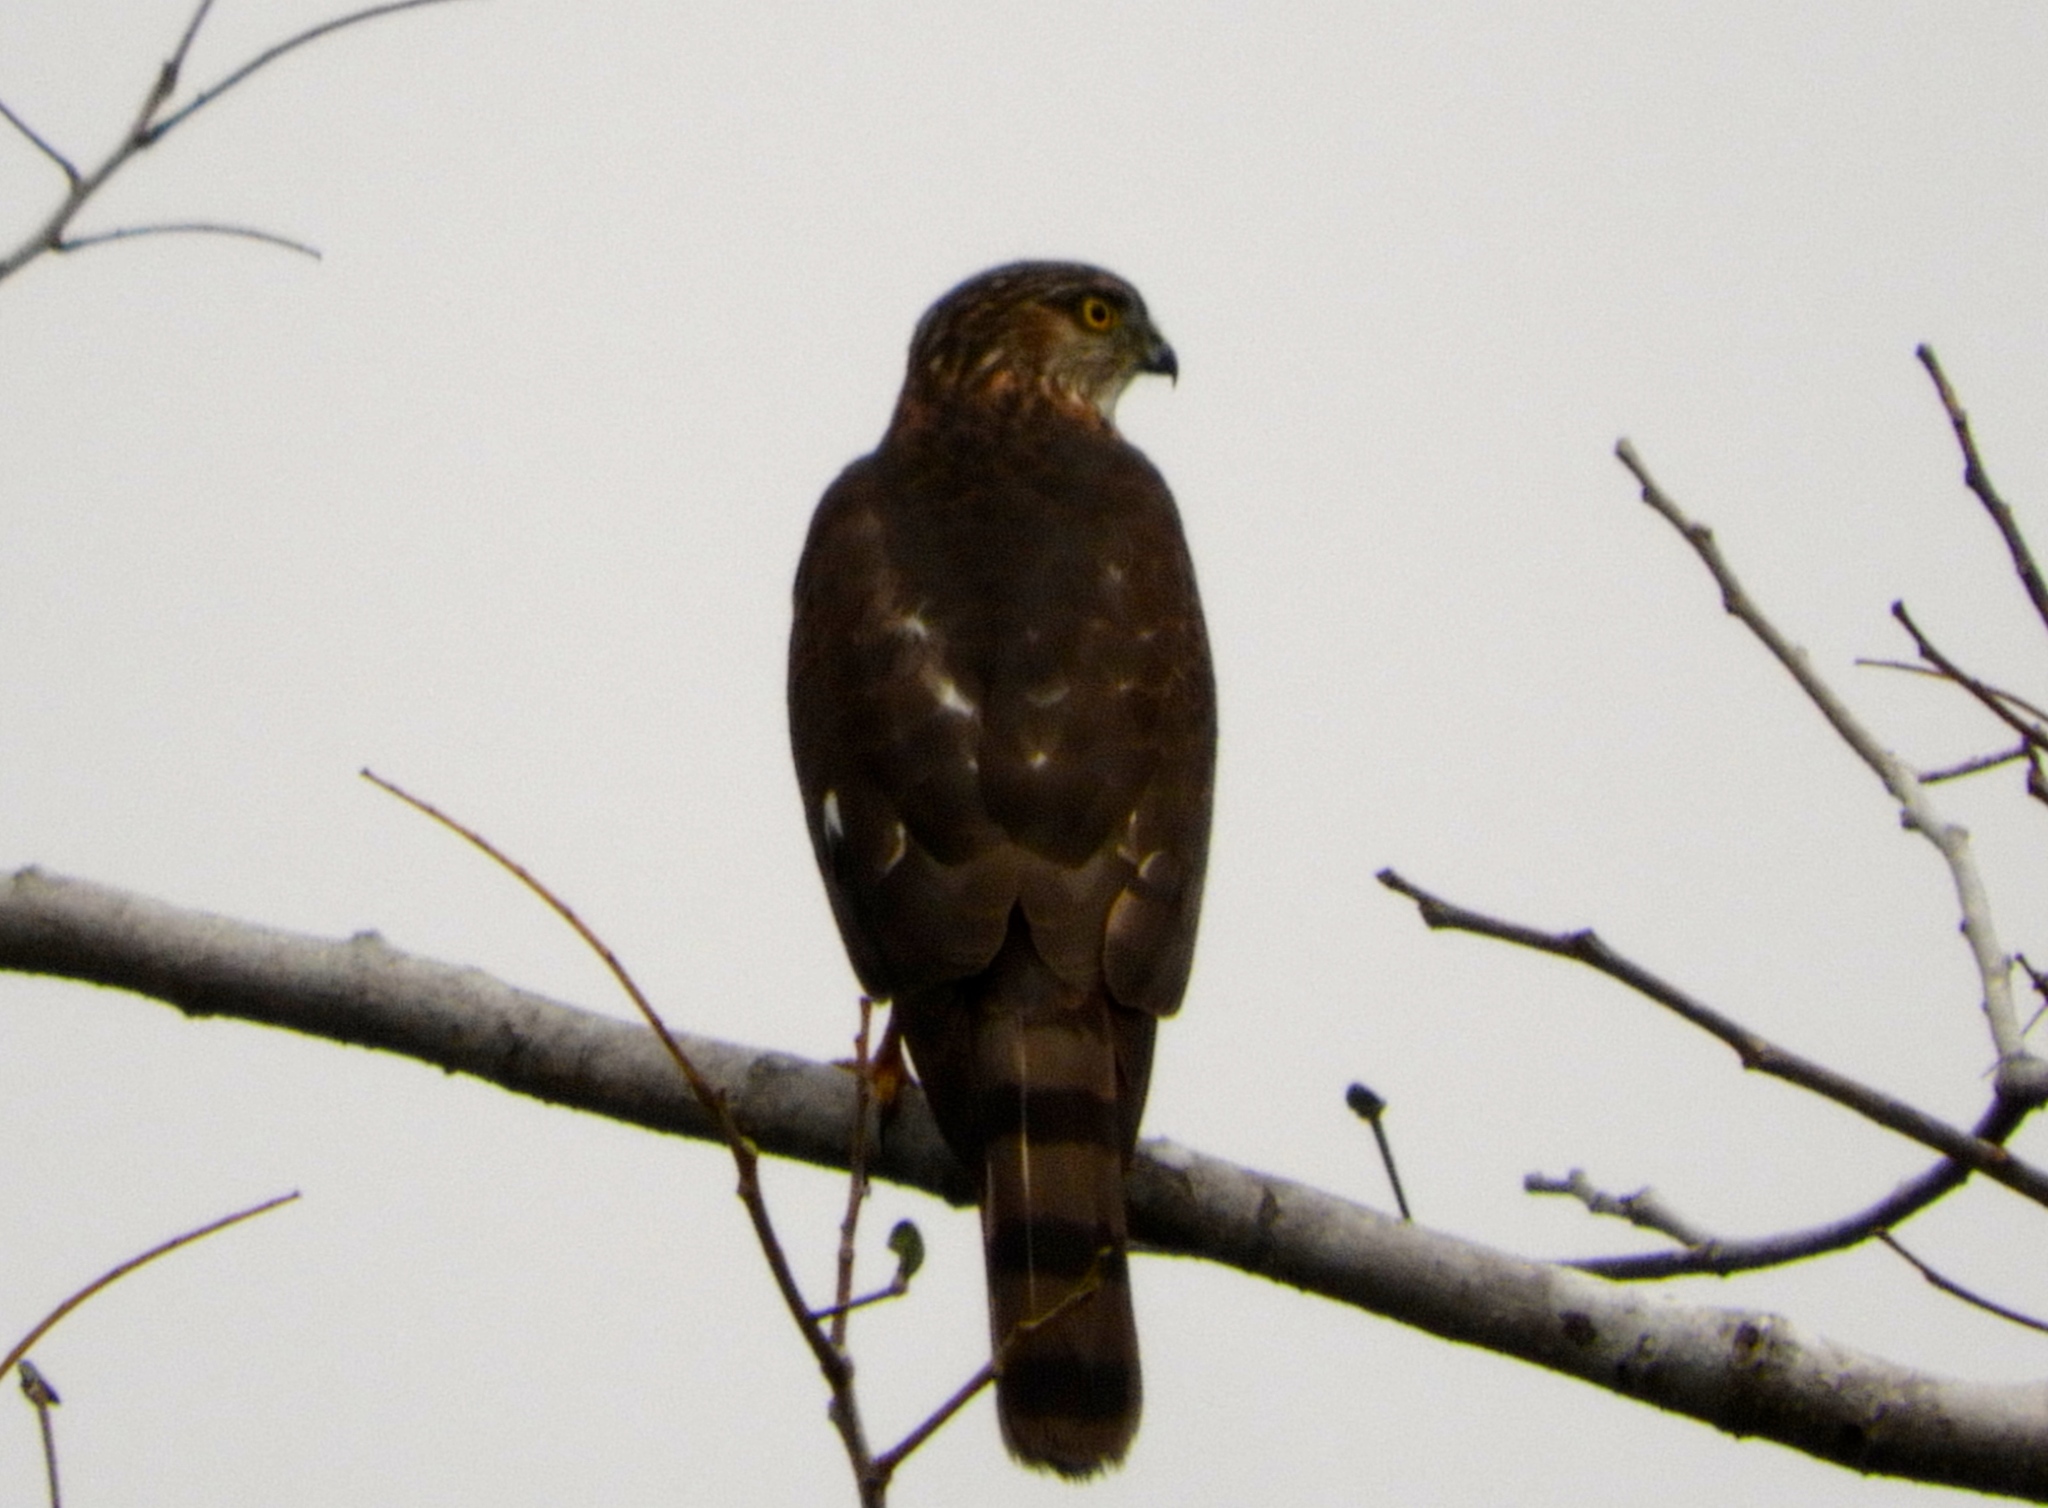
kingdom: Animalia
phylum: Chordata
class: Aves
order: Accipitriformes
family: Accipitridae
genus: Accipiter
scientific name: Accipiter striatus
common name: Sharp-shinned hawk
